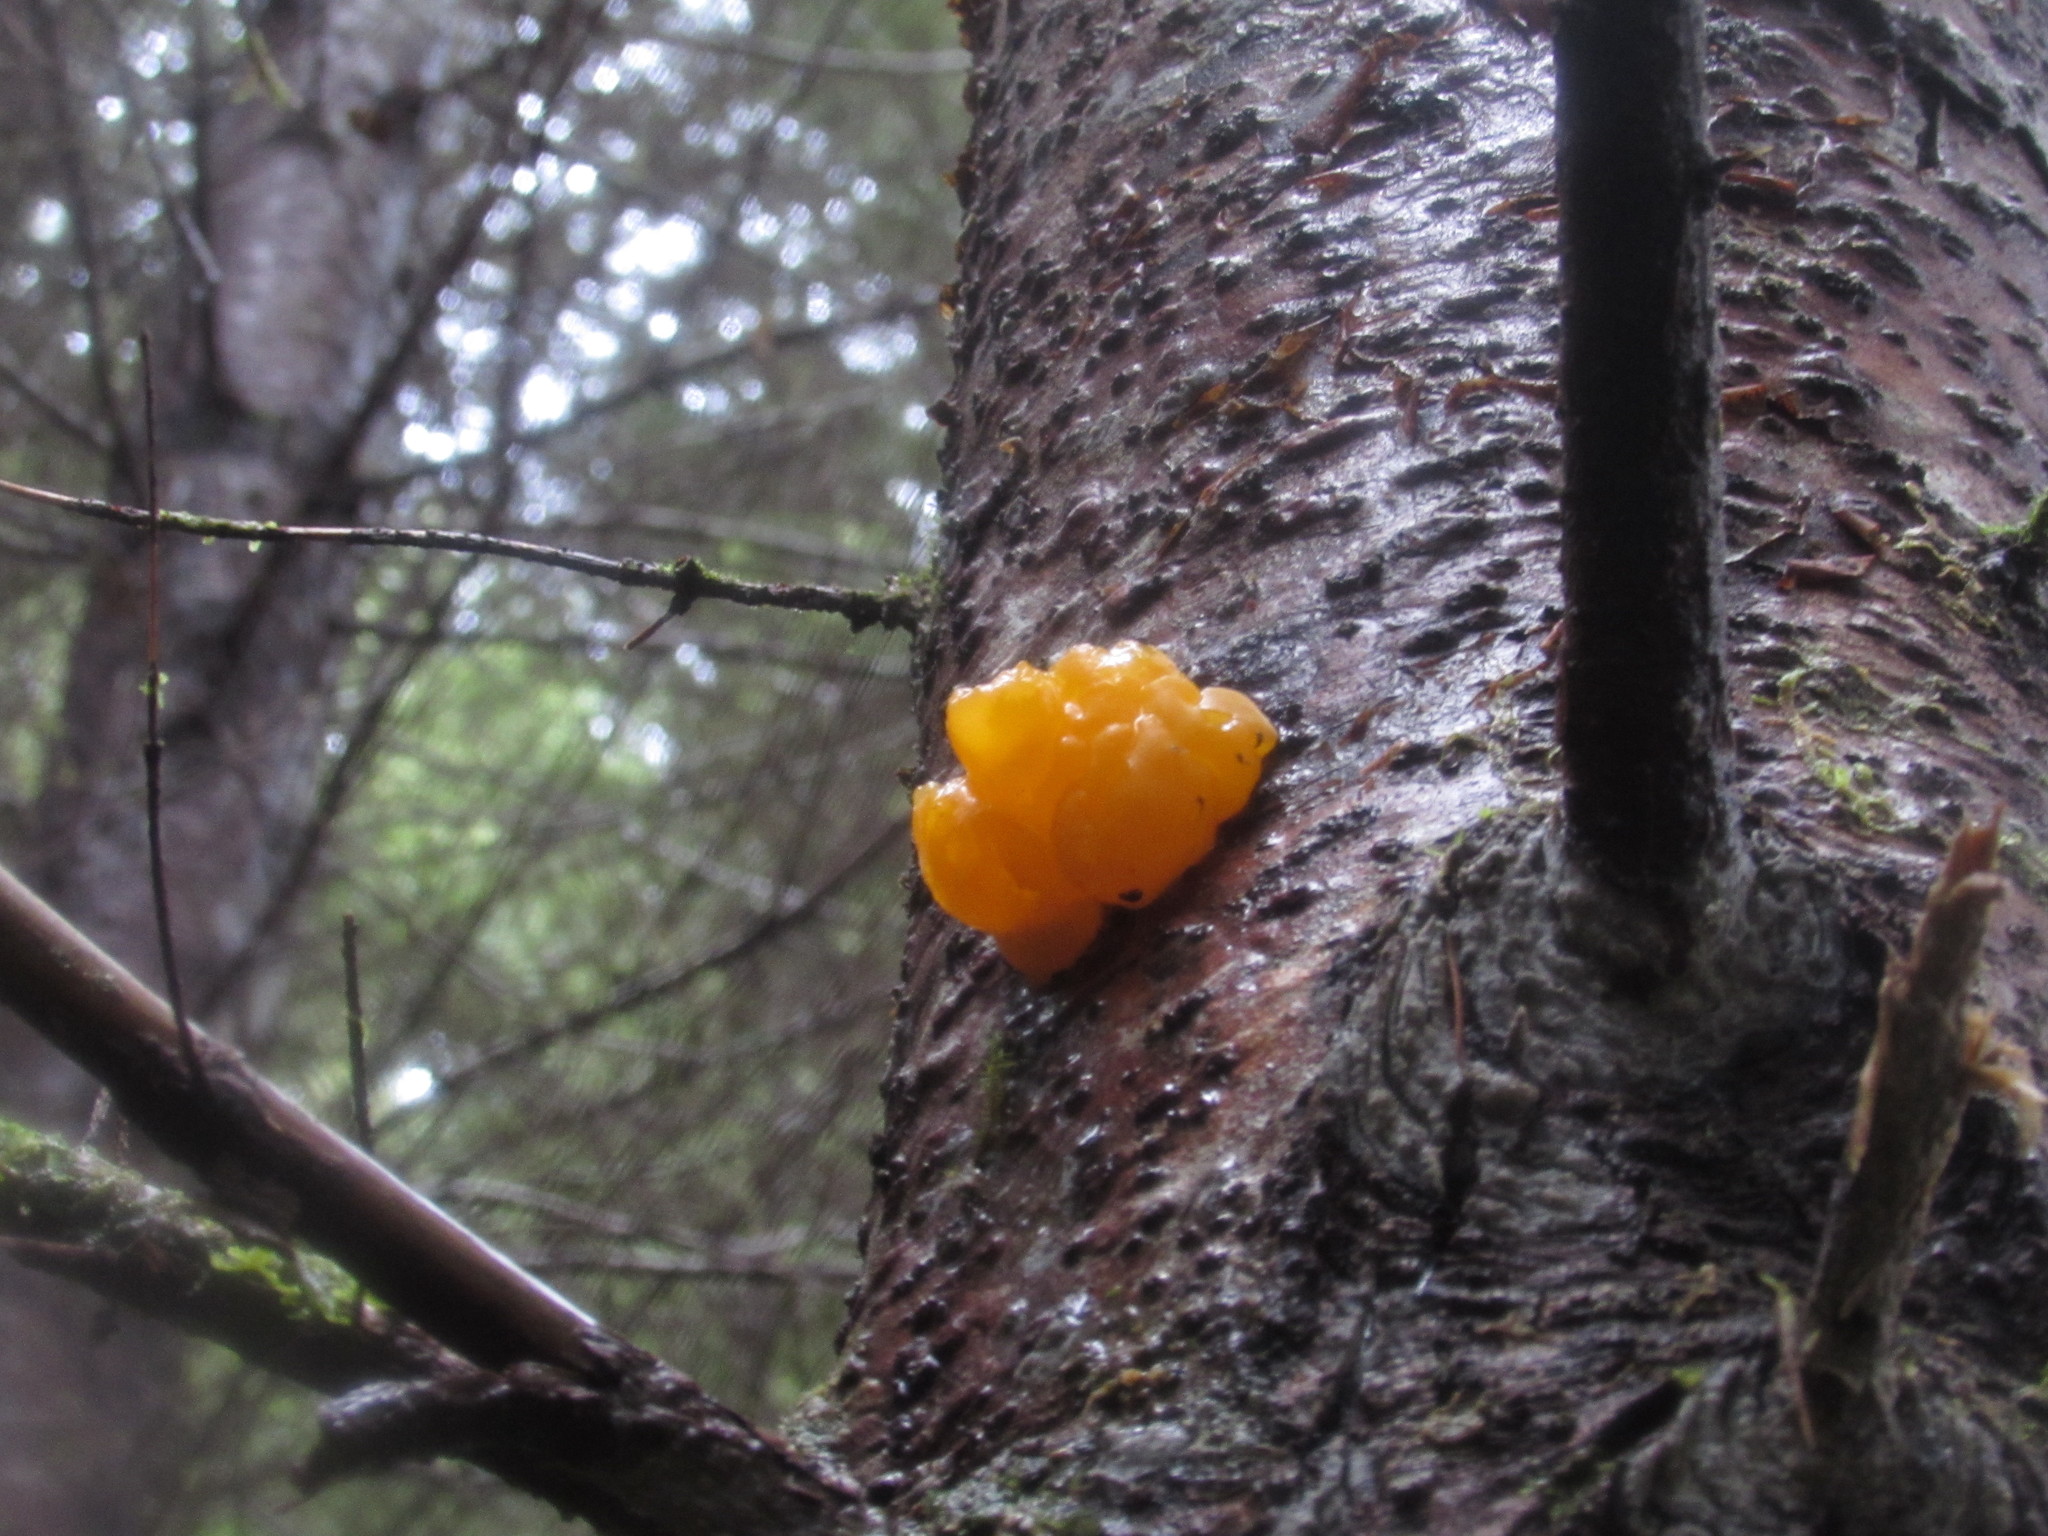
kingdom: Fungi
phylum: Basidiomycota
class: Dacrymycetes
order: Dacrymycetales
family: Dacrymycetaceae
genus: Dacrymyces
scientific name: Dacrymyces chrysospermus
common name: Orange jelly spot
